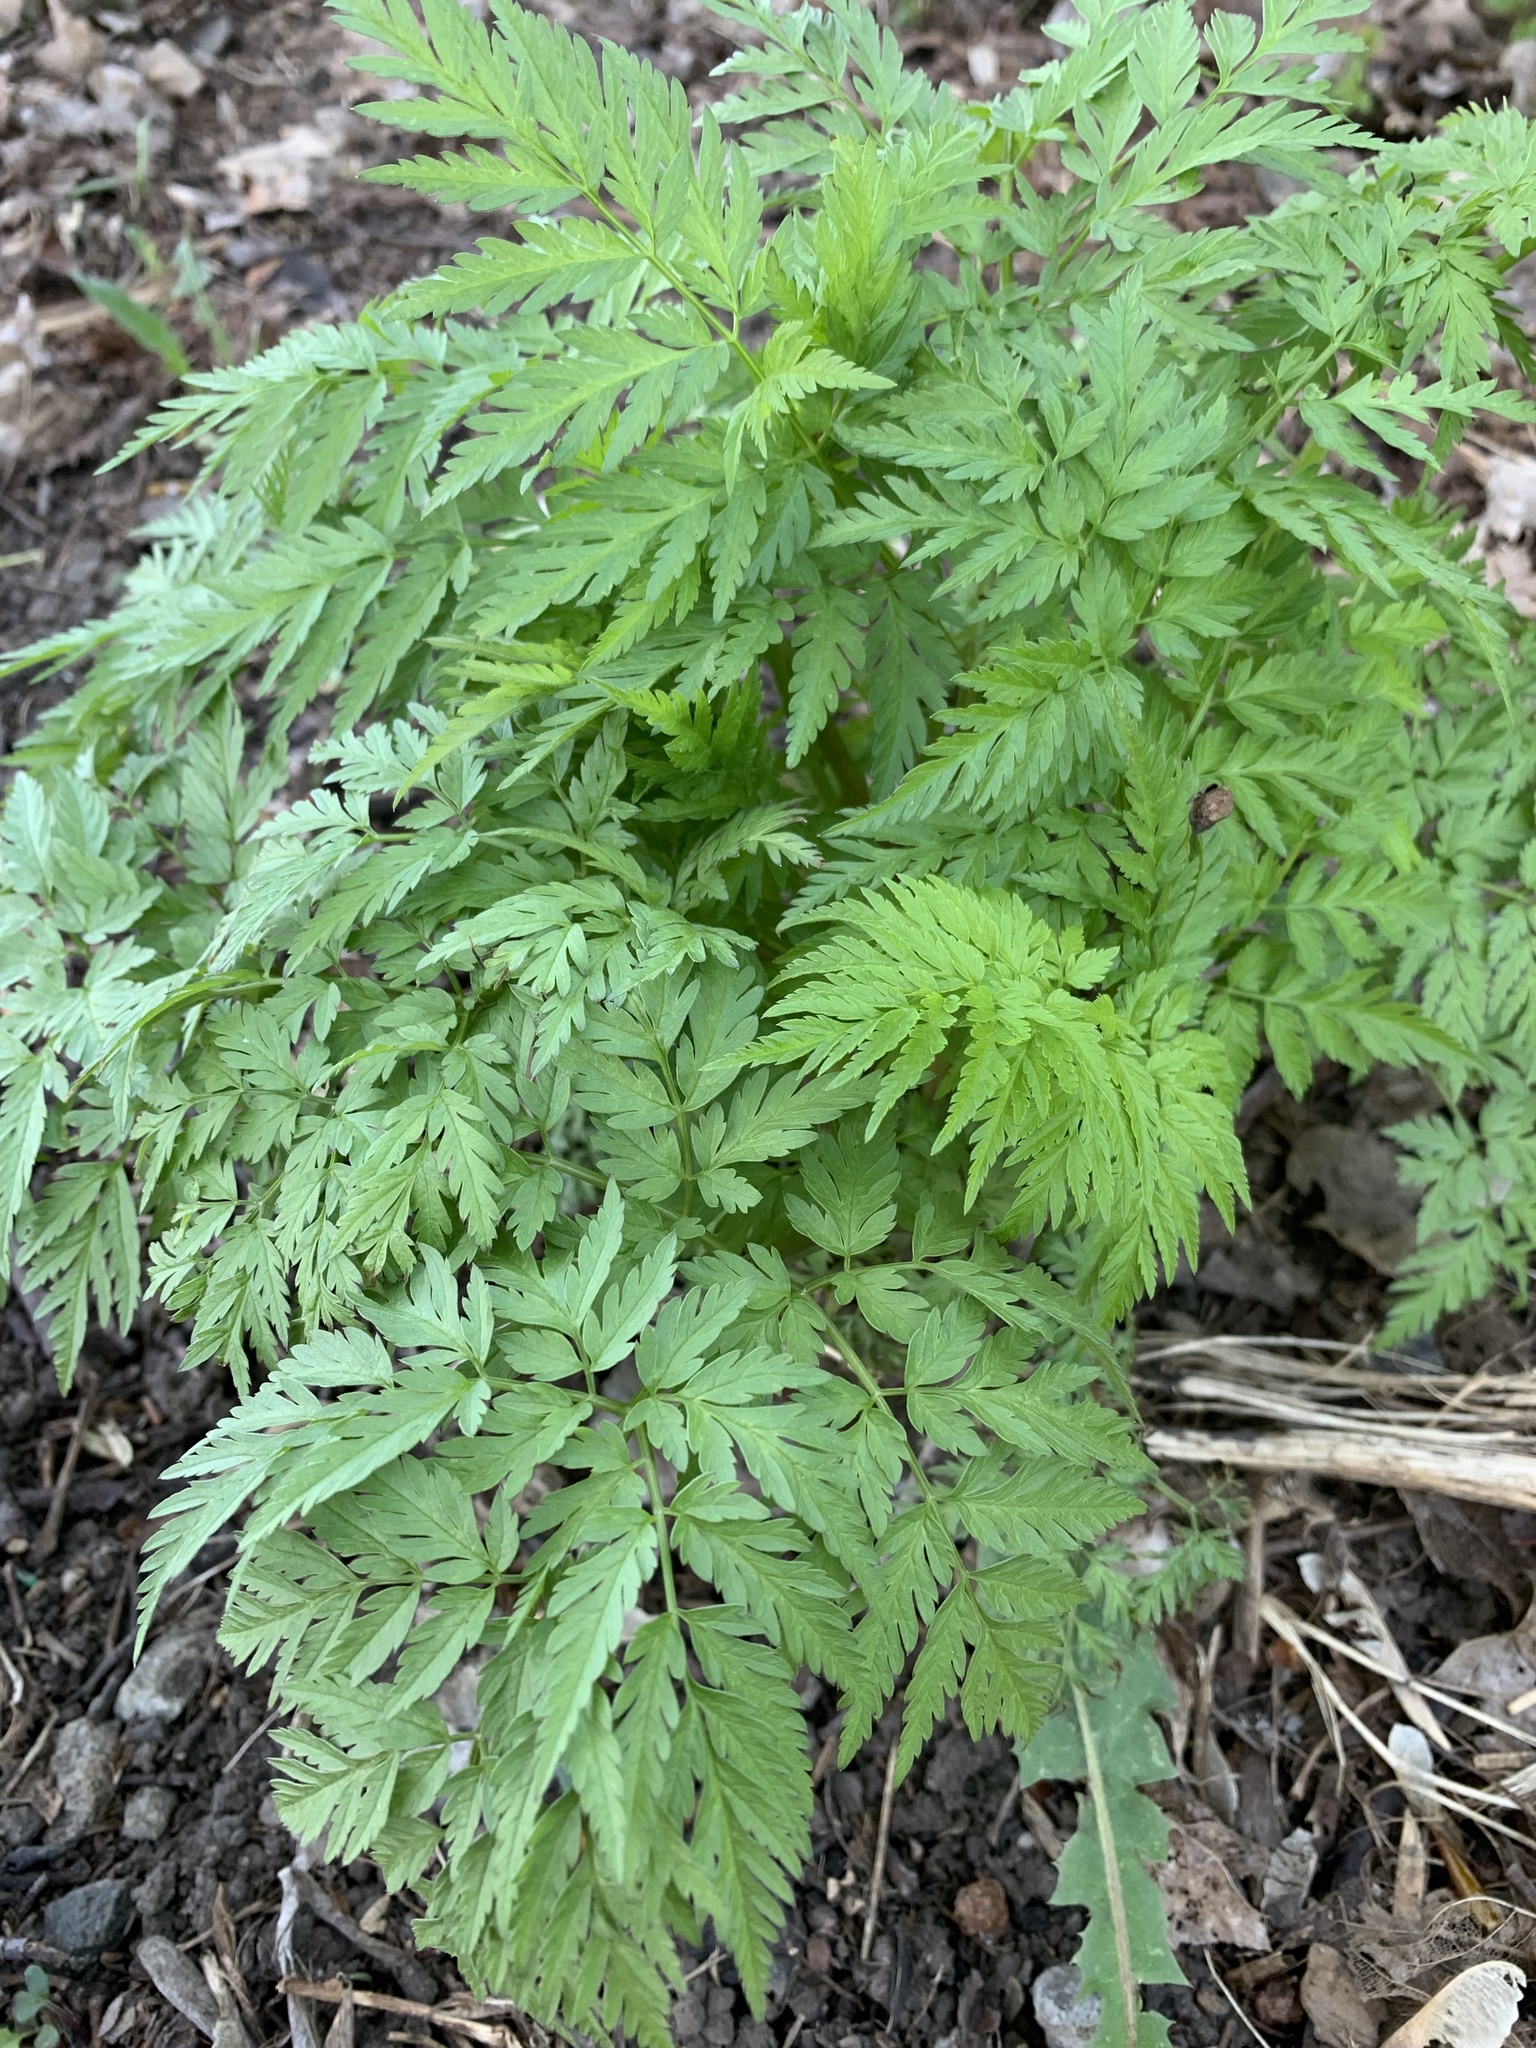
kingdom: Plantae
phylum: Tracheophyta
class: Magnoliopsida
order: Apiales
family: Apiaceae
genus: Anthriscus
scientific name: Anthriscus sylvestris
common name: Cow parsley
